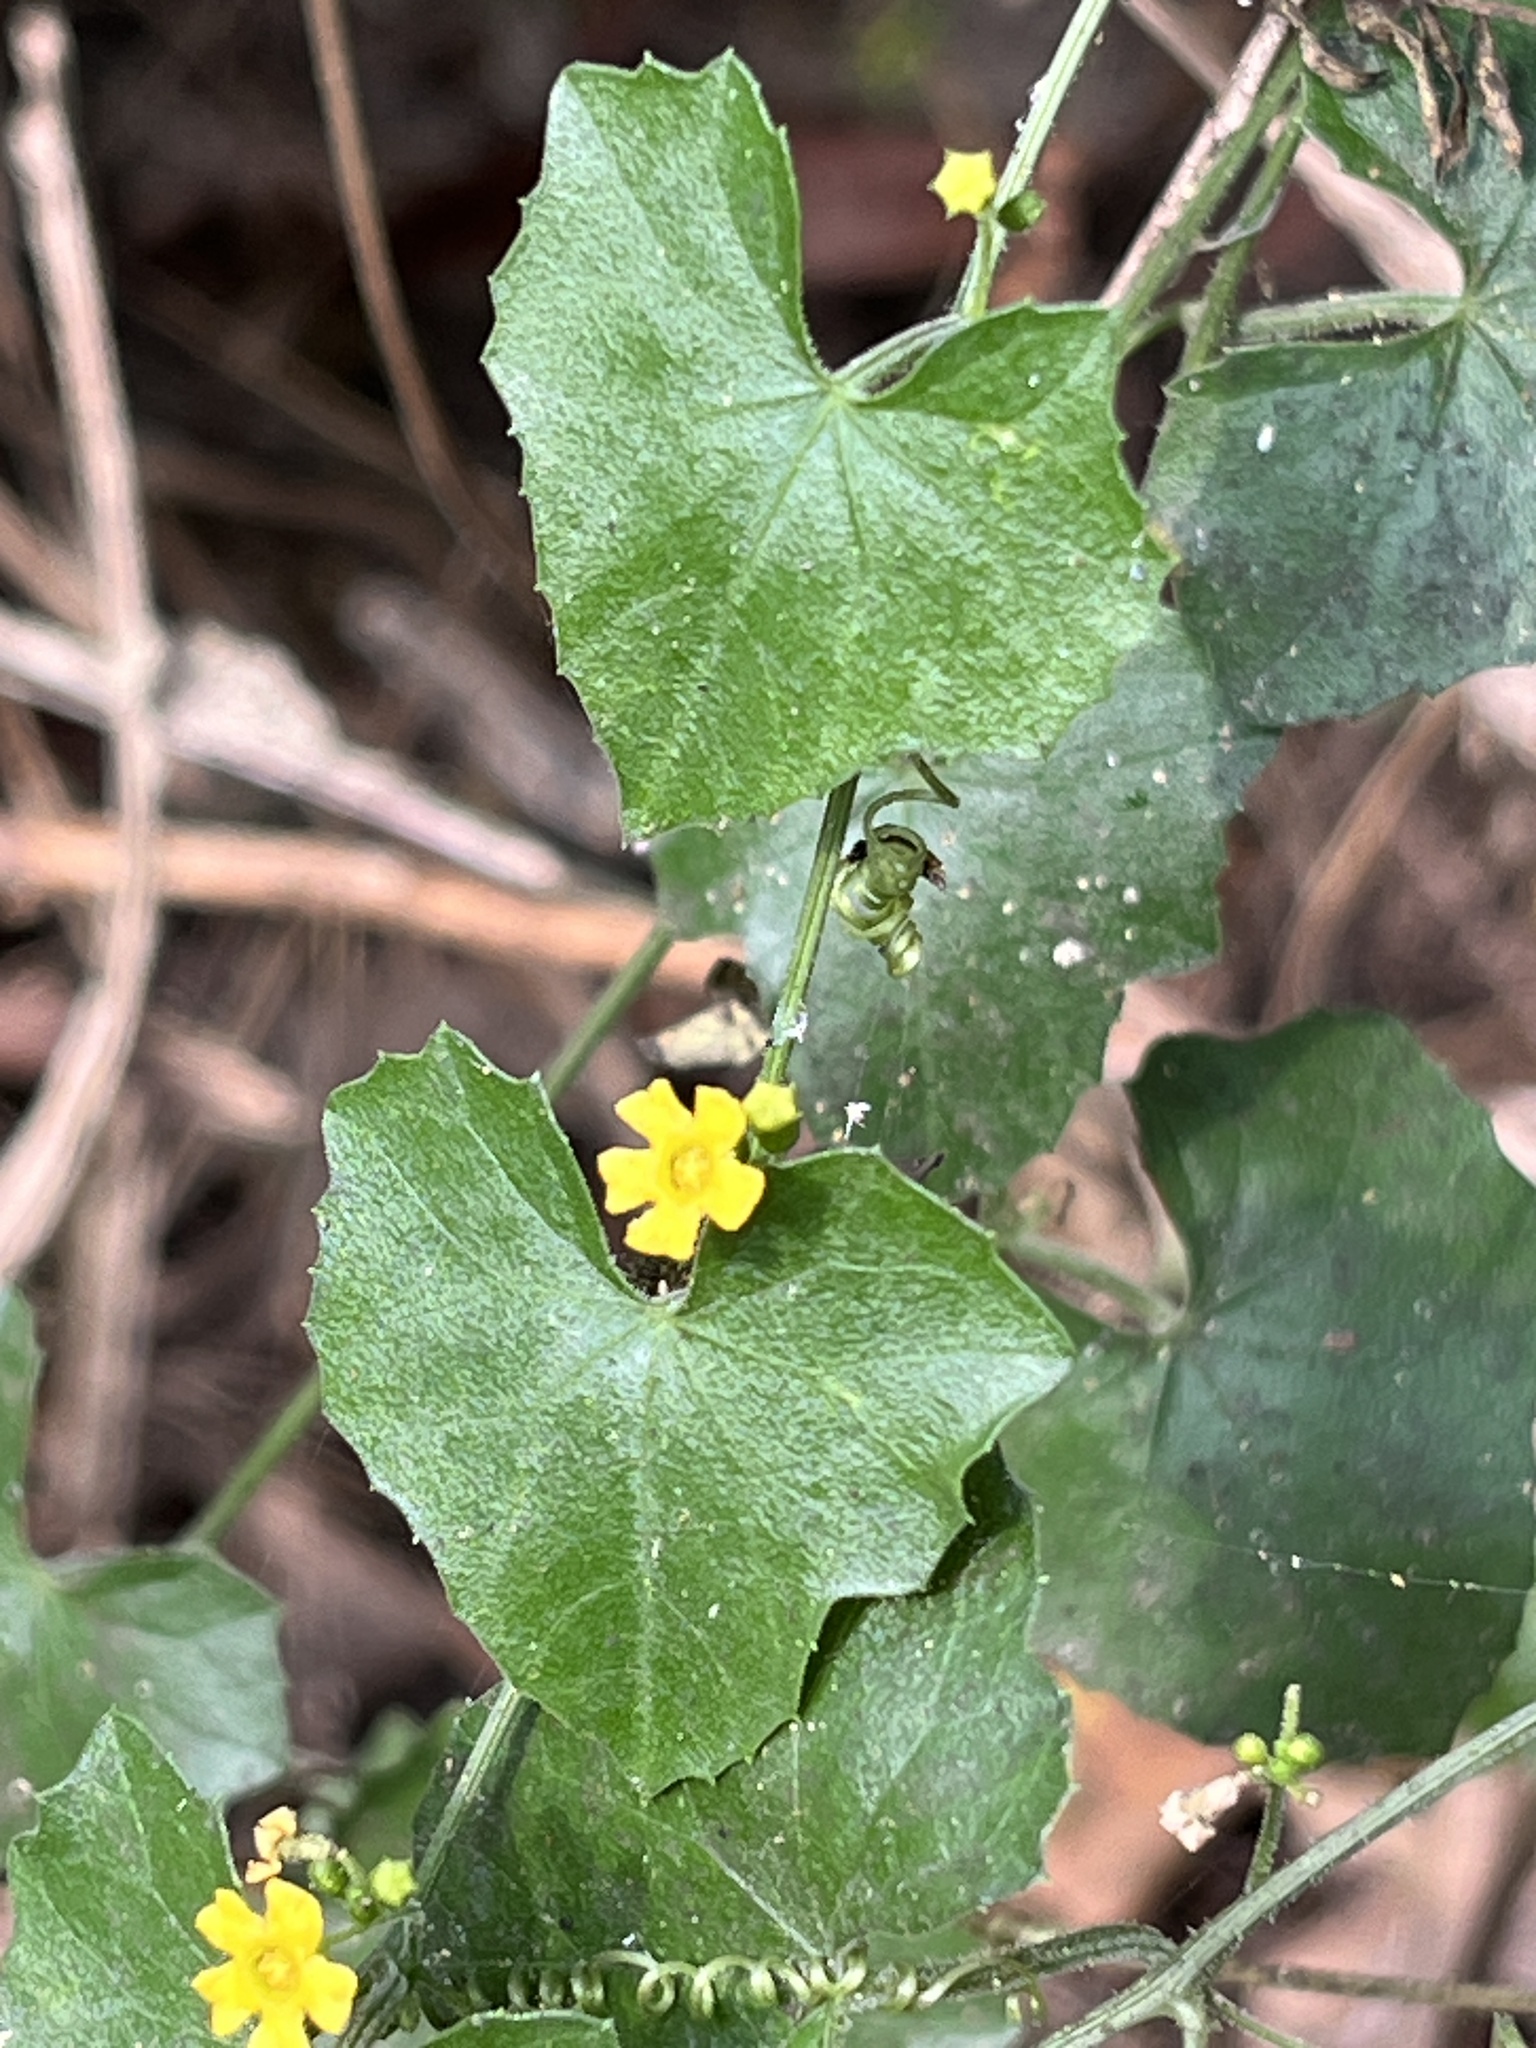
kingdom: Plantae
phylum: Tracheophyta
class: Magnoliopsida
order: Cucurbitales
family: Cucurbitaceae
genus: Melothria
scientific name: Melothria pendula
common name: Creeping-cucumber
